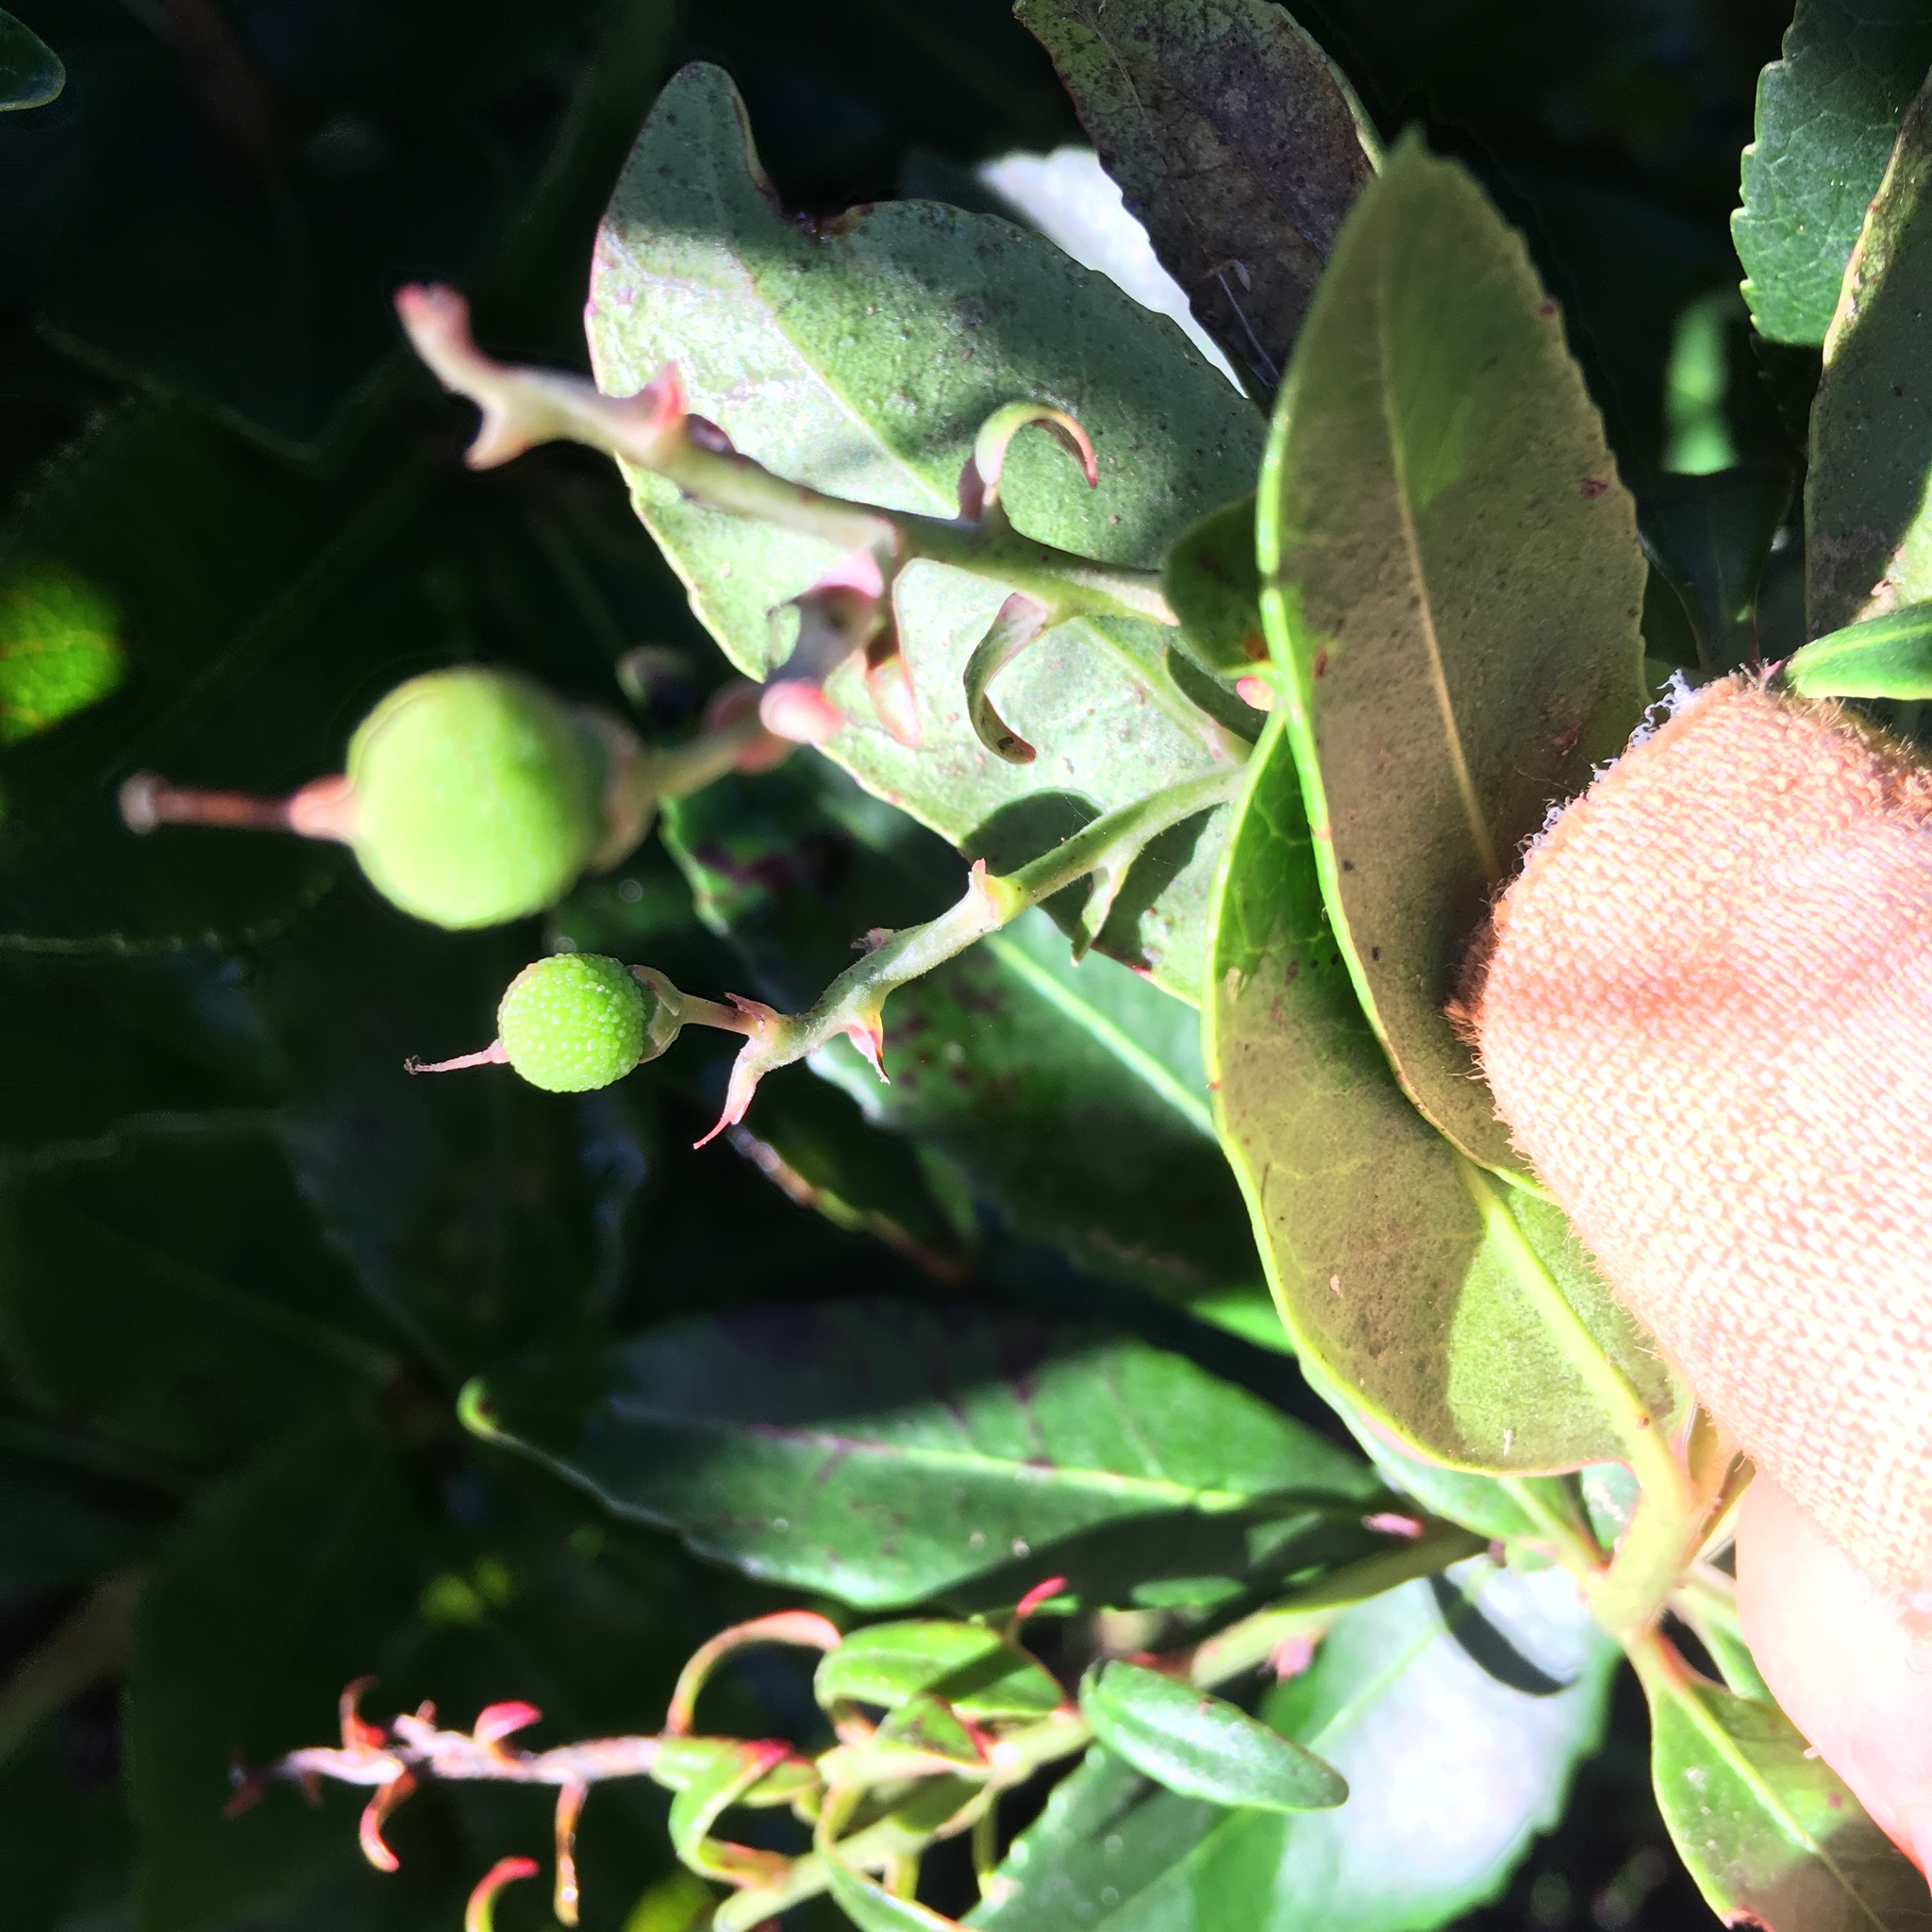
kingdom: Plantae
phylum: Tracheophyta
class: Magnoliopsida
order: Ericales
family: Ericaceae
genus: Arbutus
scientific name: Arbutus unedo
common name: Strawberry-tree
